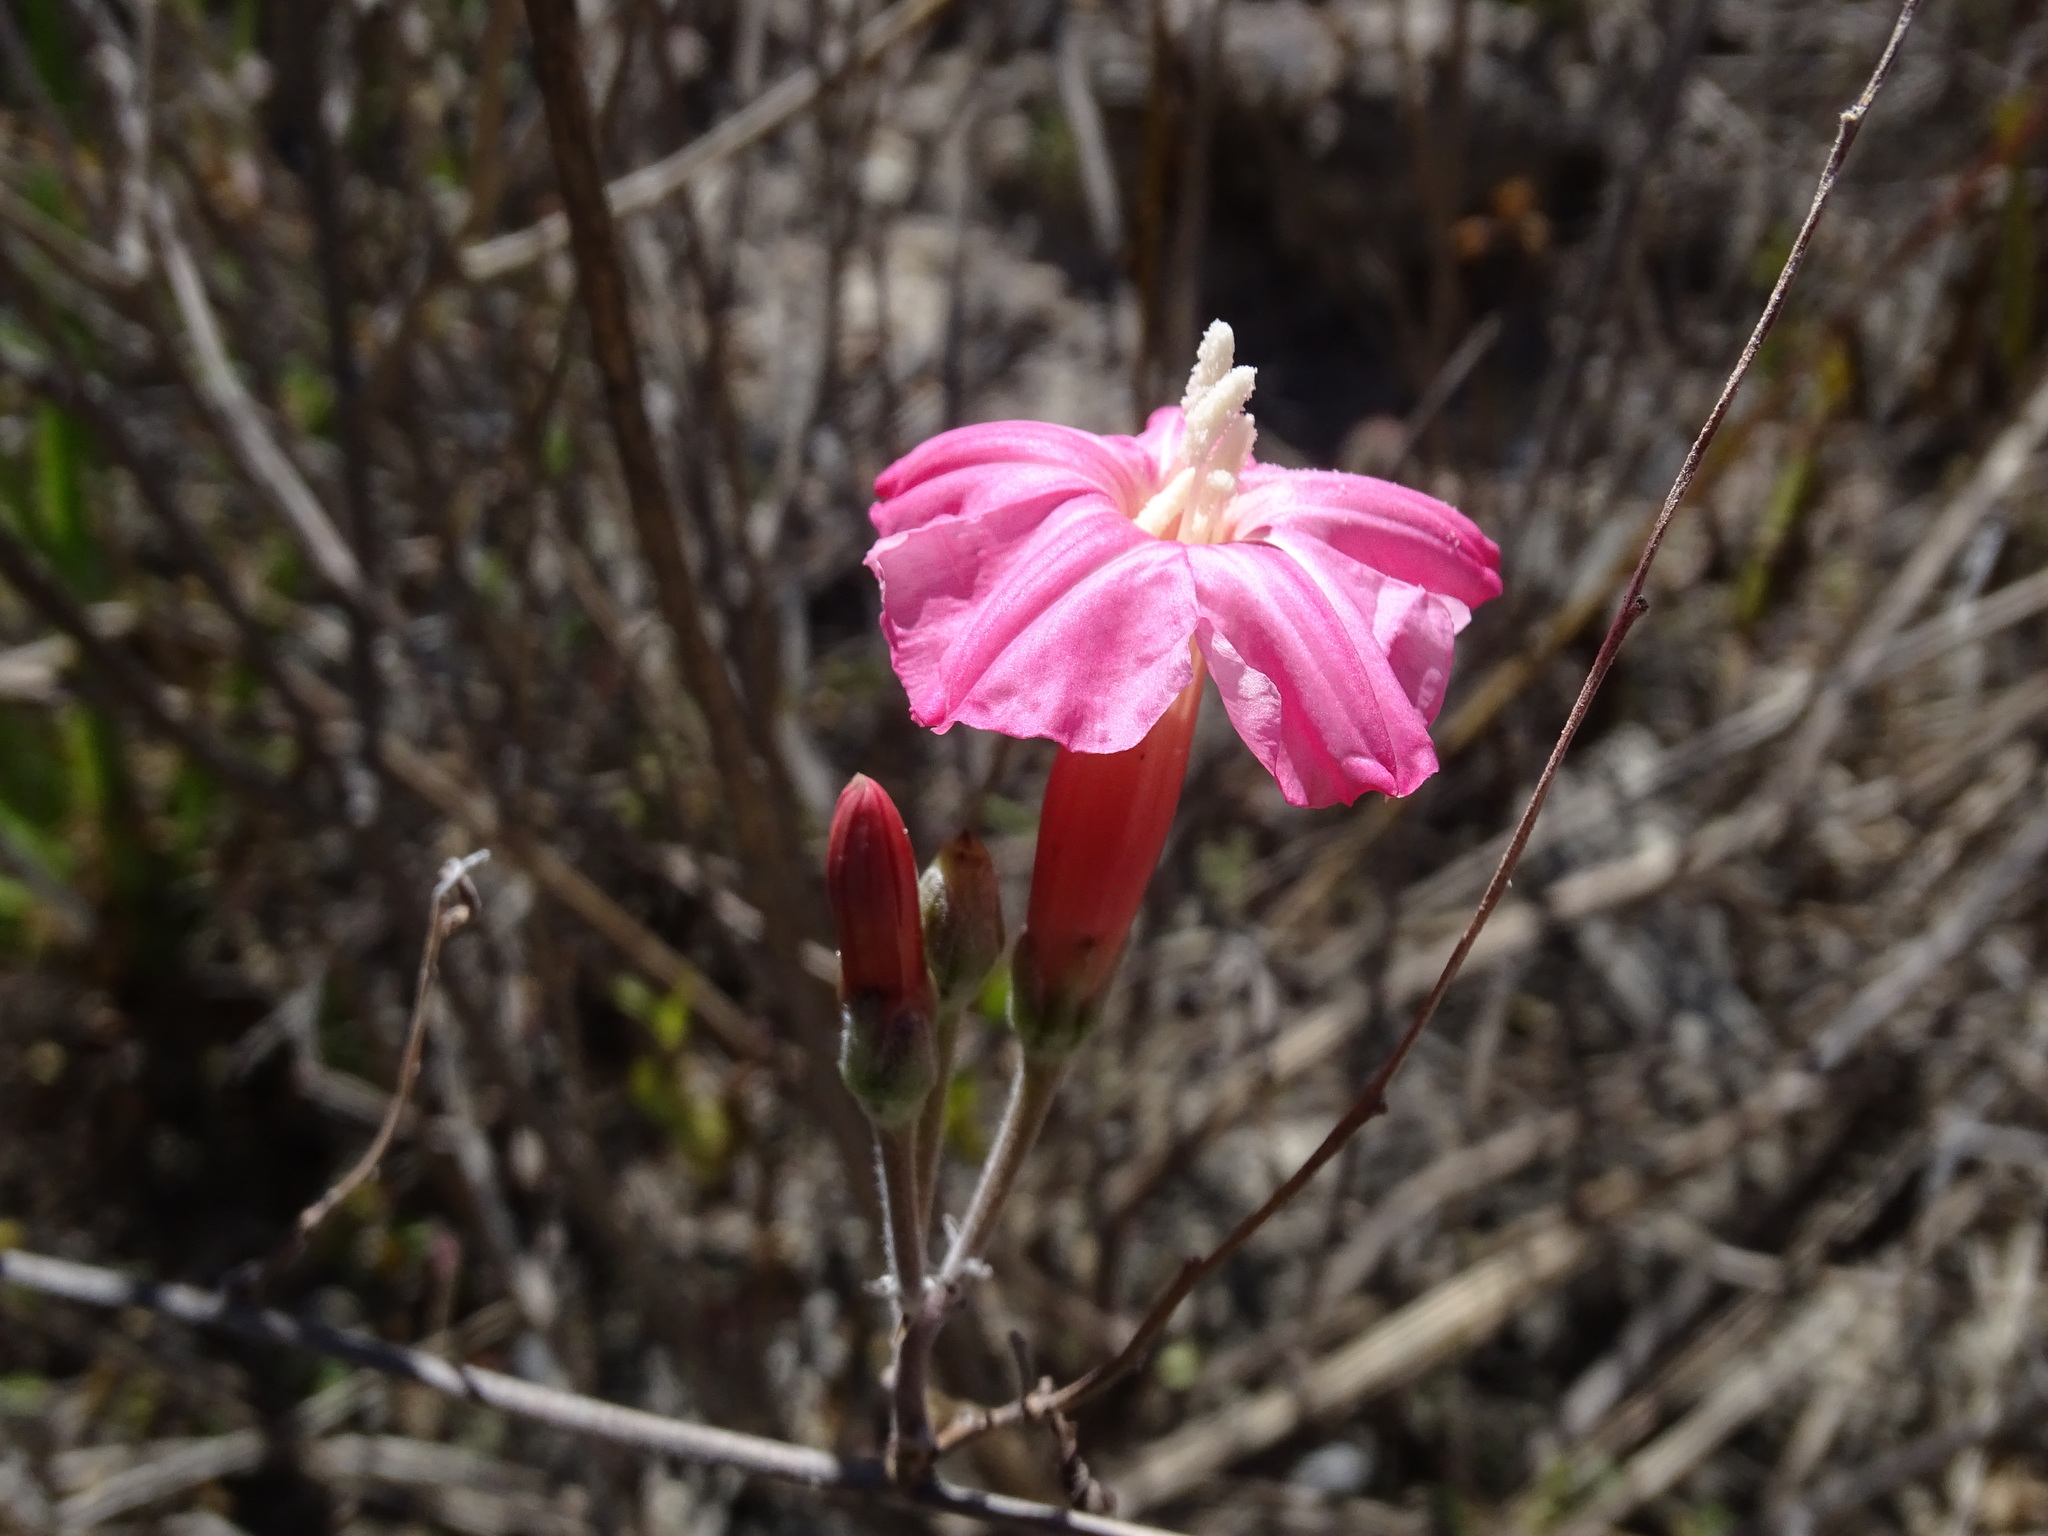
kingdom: Plantae
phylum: Tracheophyta
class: Magnoliopsida
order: Solanales
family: Convolvulaceae
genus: Ipomoea
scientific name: Ipomoea conzattii
